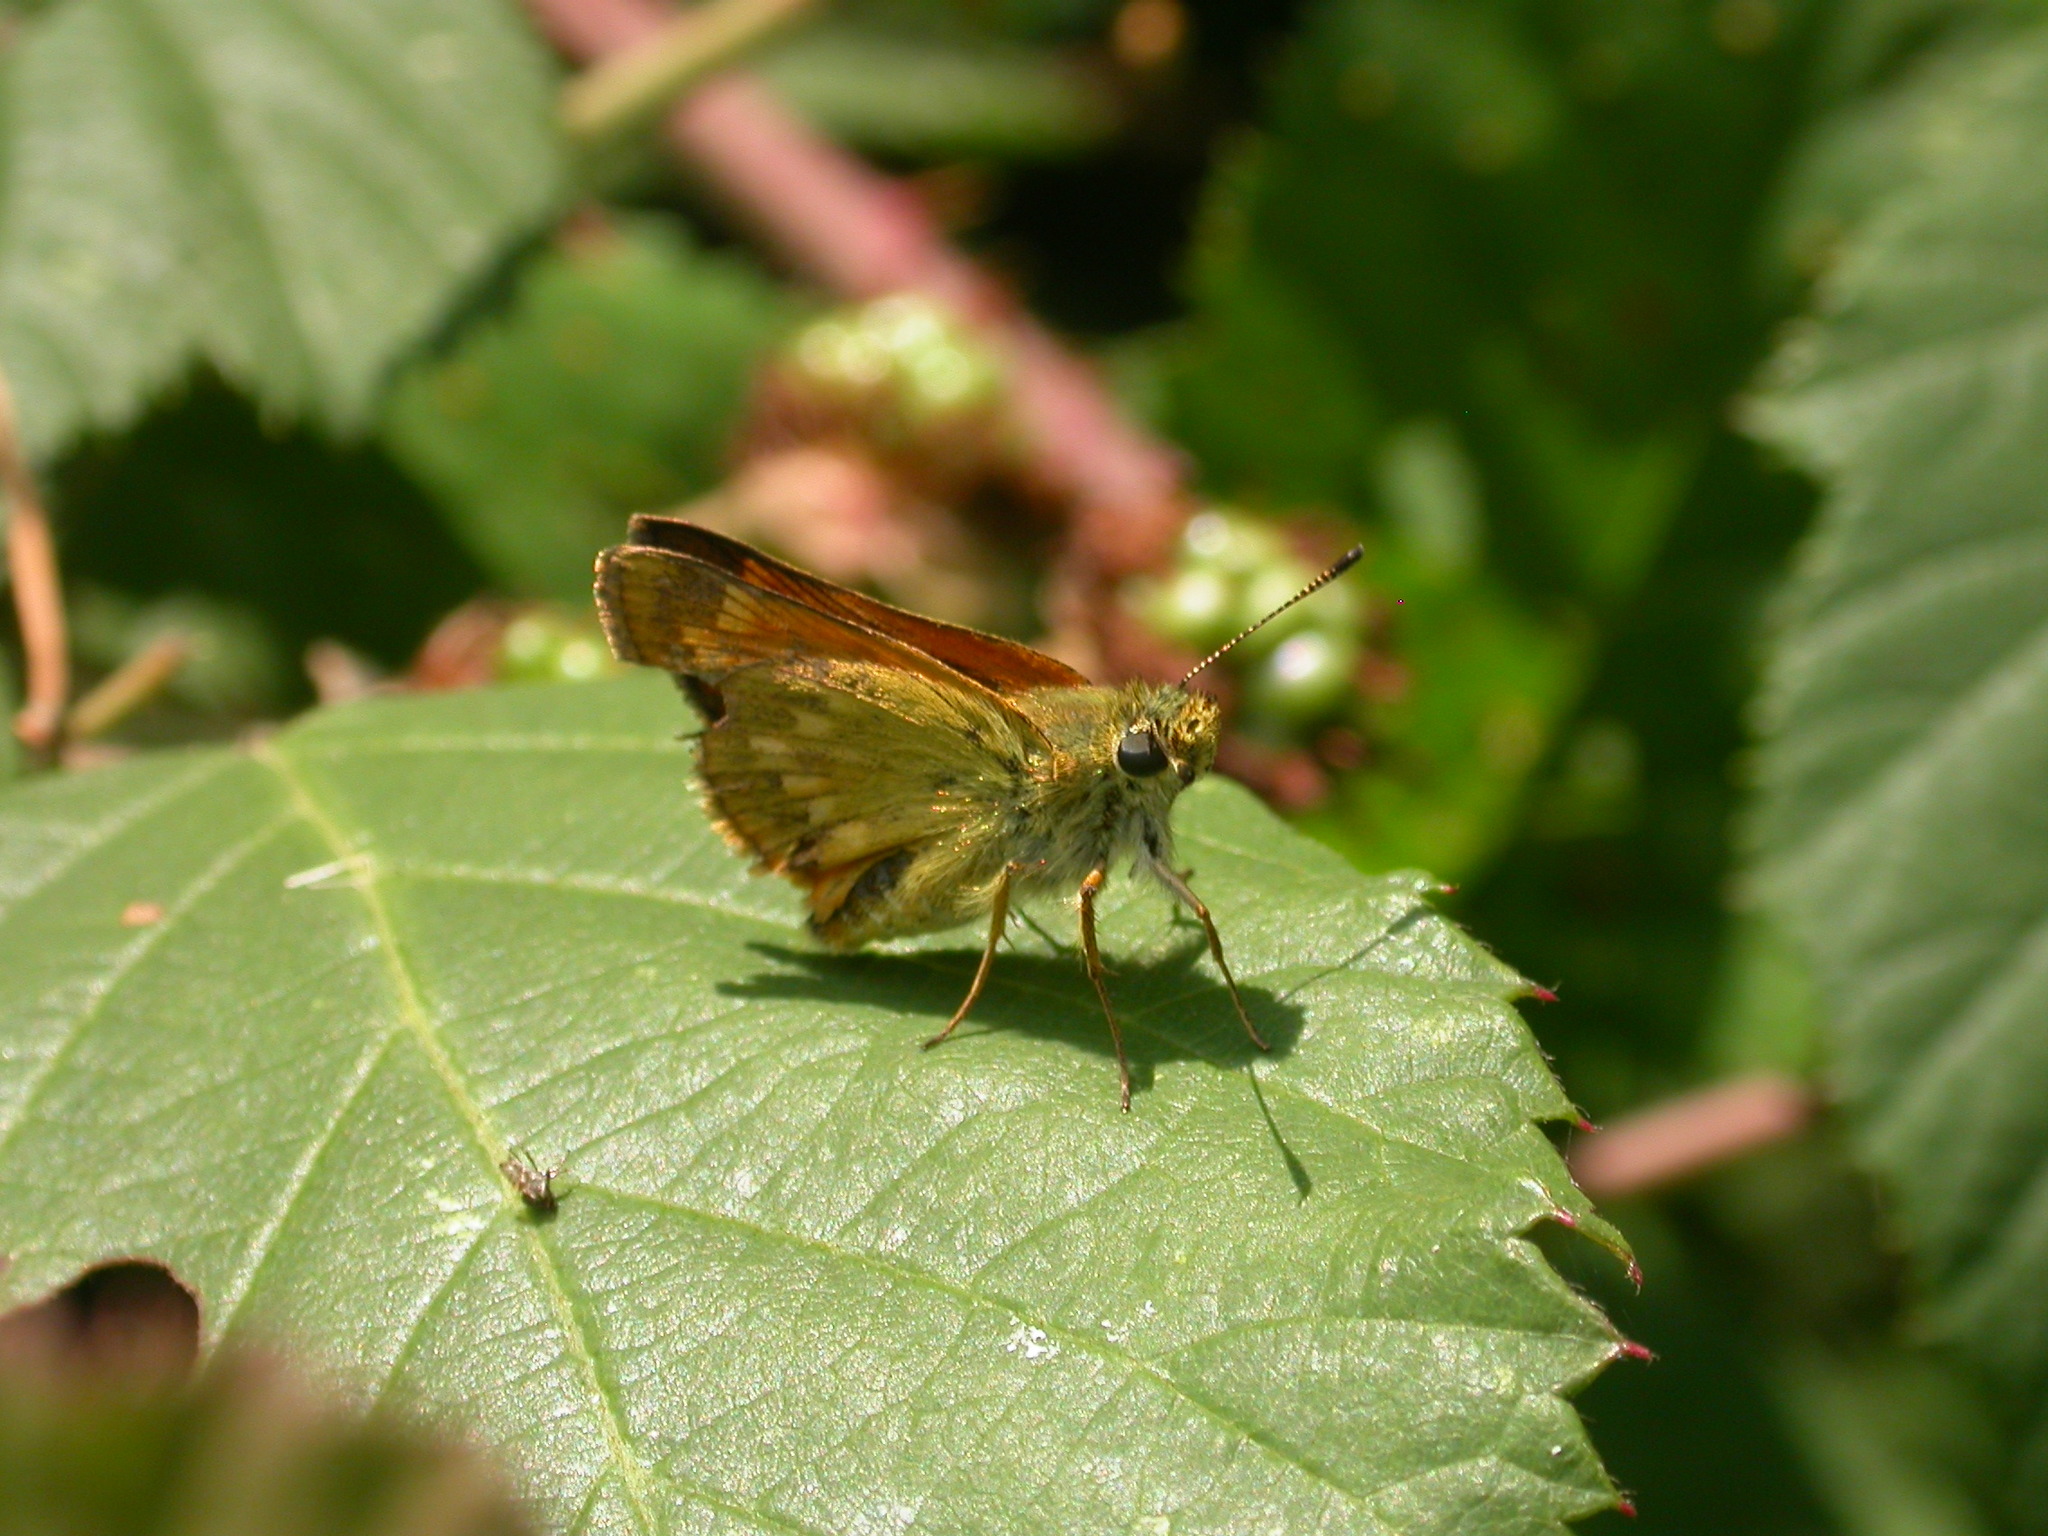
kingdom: Animalia
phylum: Arthropoda
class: Insecta
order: Lepidoptera
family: Hesperiidae
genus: Ochlodes
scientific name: Ochlodes venata
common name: Large skipper
